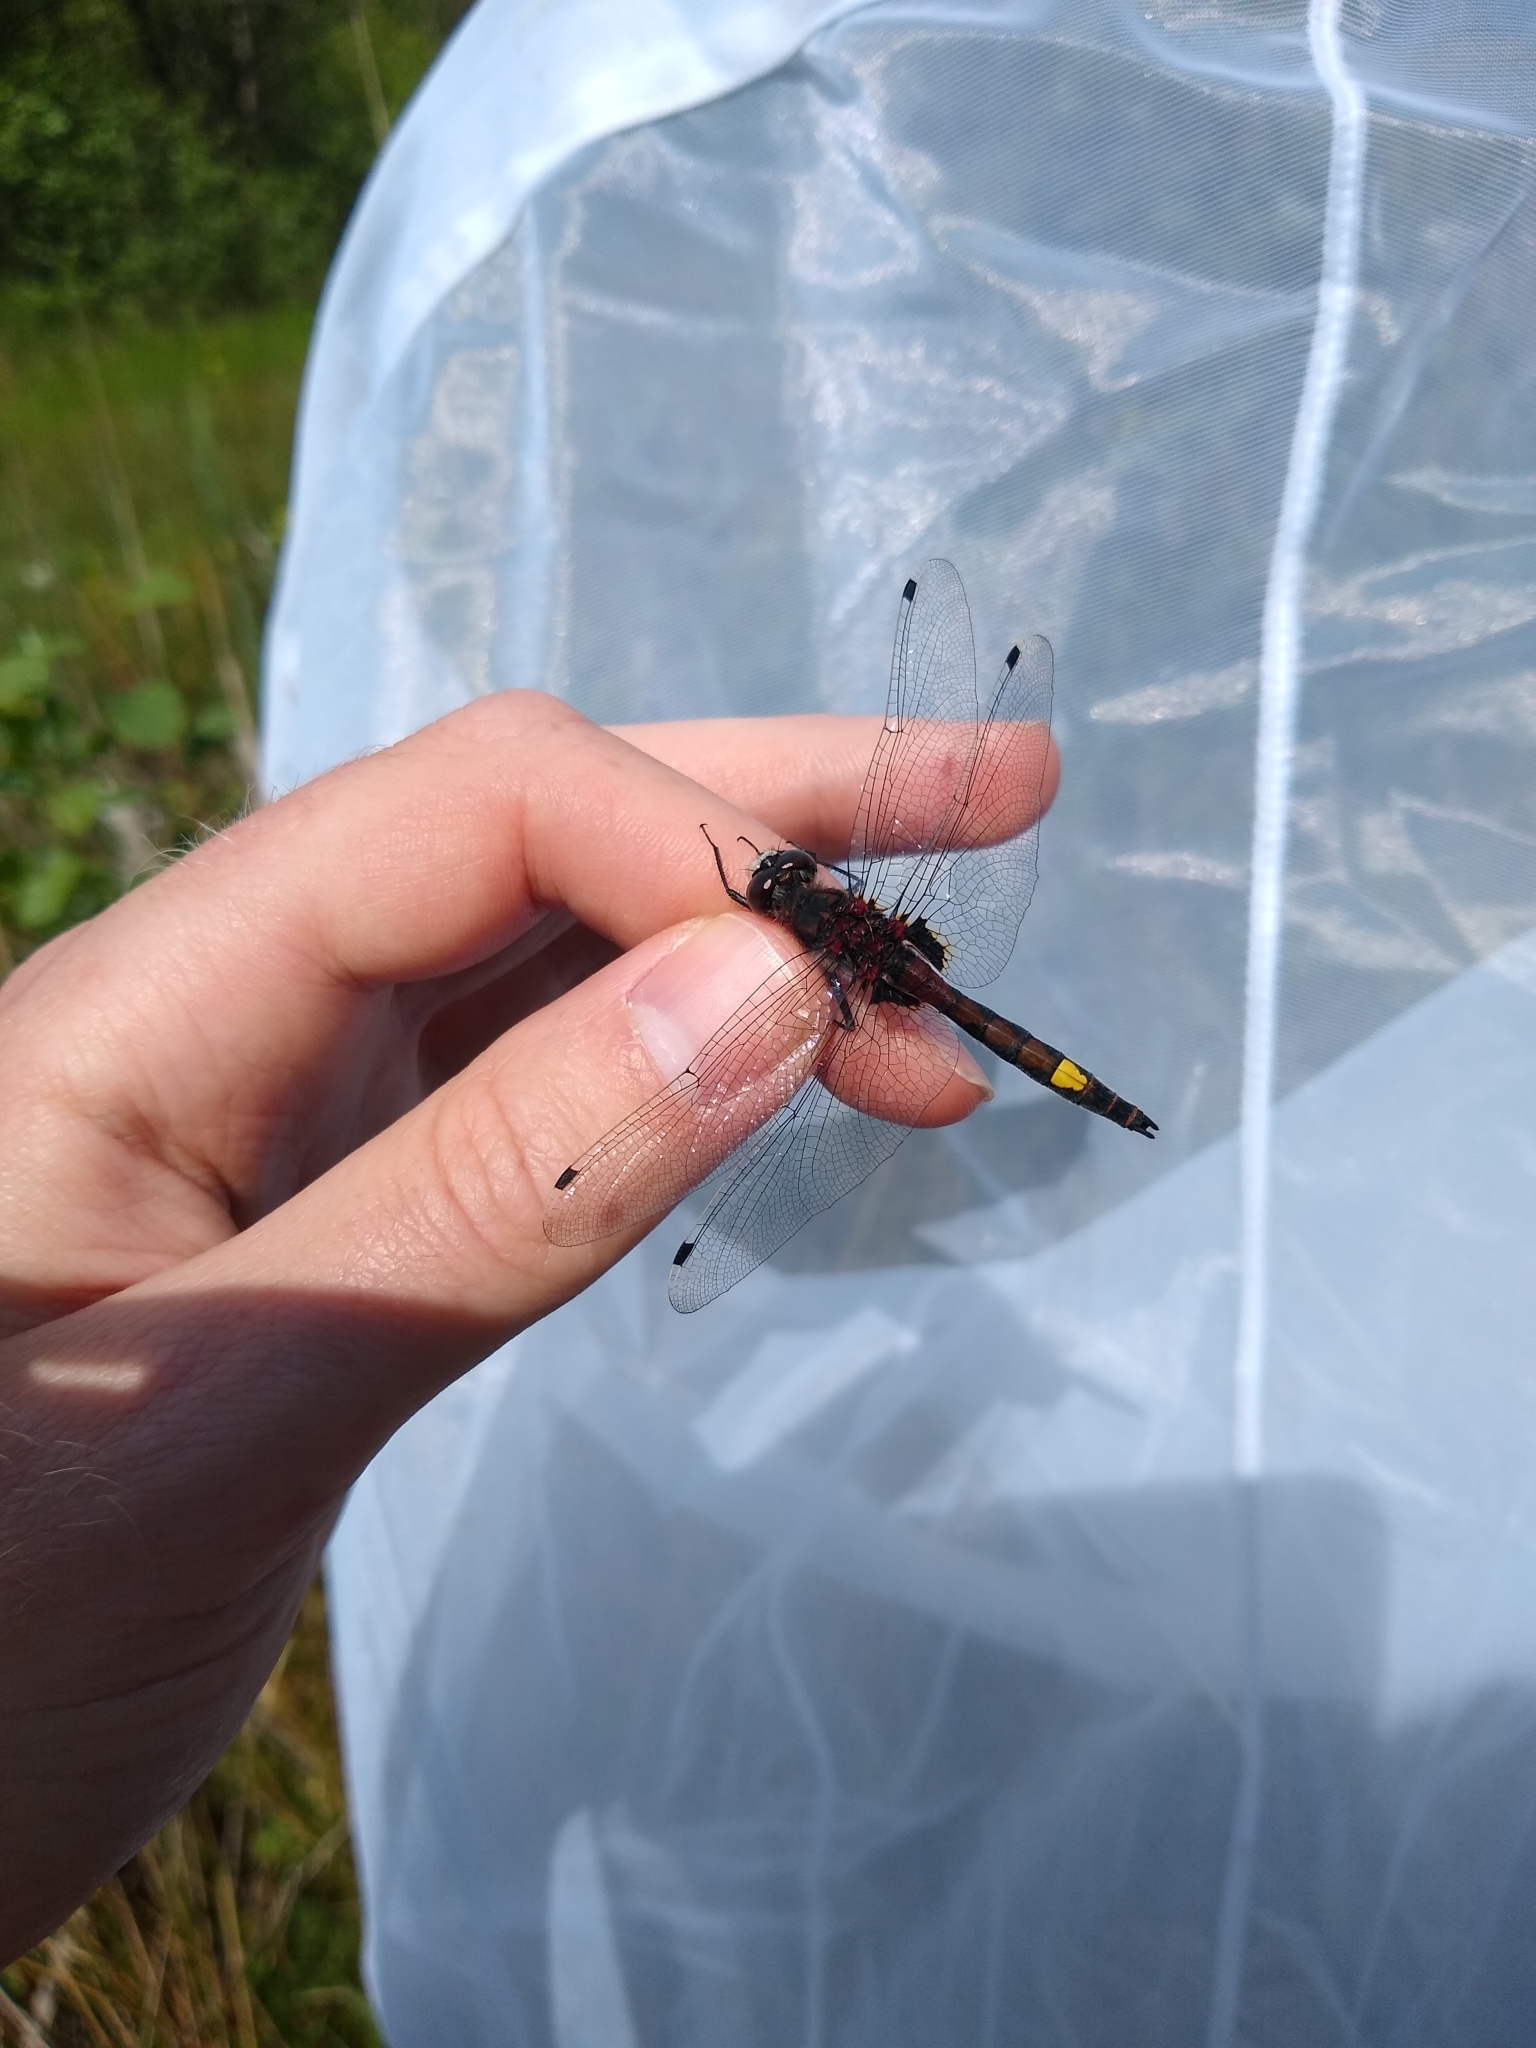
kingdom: Animalia
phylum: Arthropoda
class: Insecta
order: Odonata
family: Libellulidae
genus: Leucorrhinia
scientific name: Leucorrhinia pectoralis
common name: Yellow-spotted whiteface
